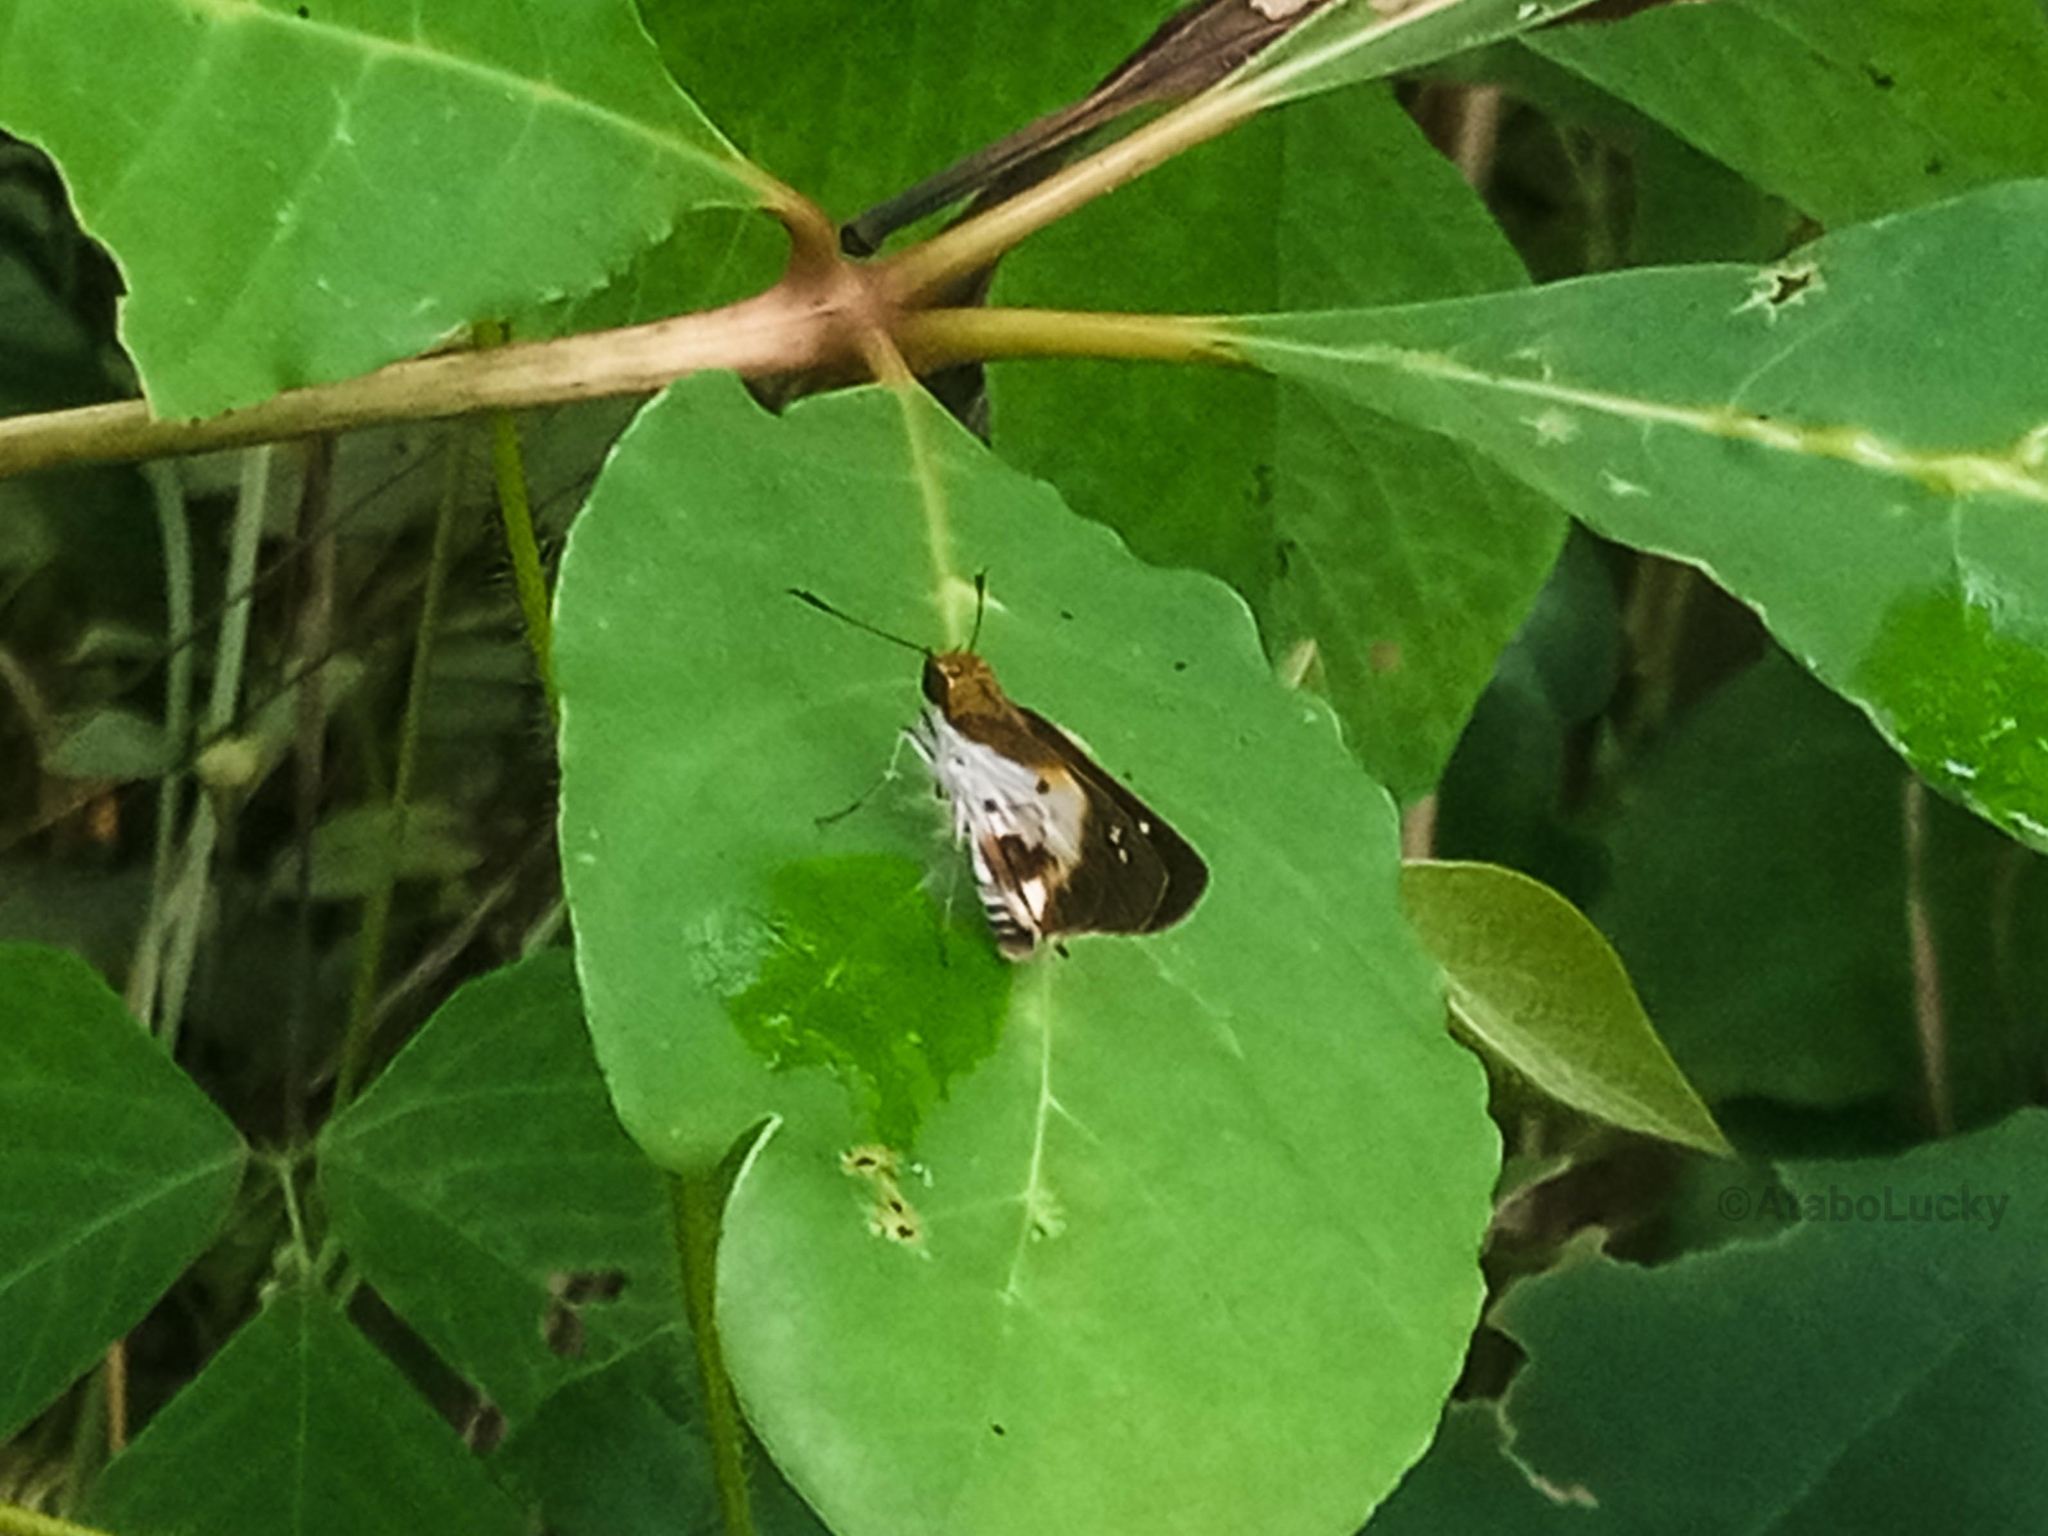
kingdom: Animalia
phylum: Arthropoda
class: Insecta
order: Lepidoptera
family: Hesperiidae
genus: Andronymus
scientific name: Andronymus caesar
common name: Common dart
